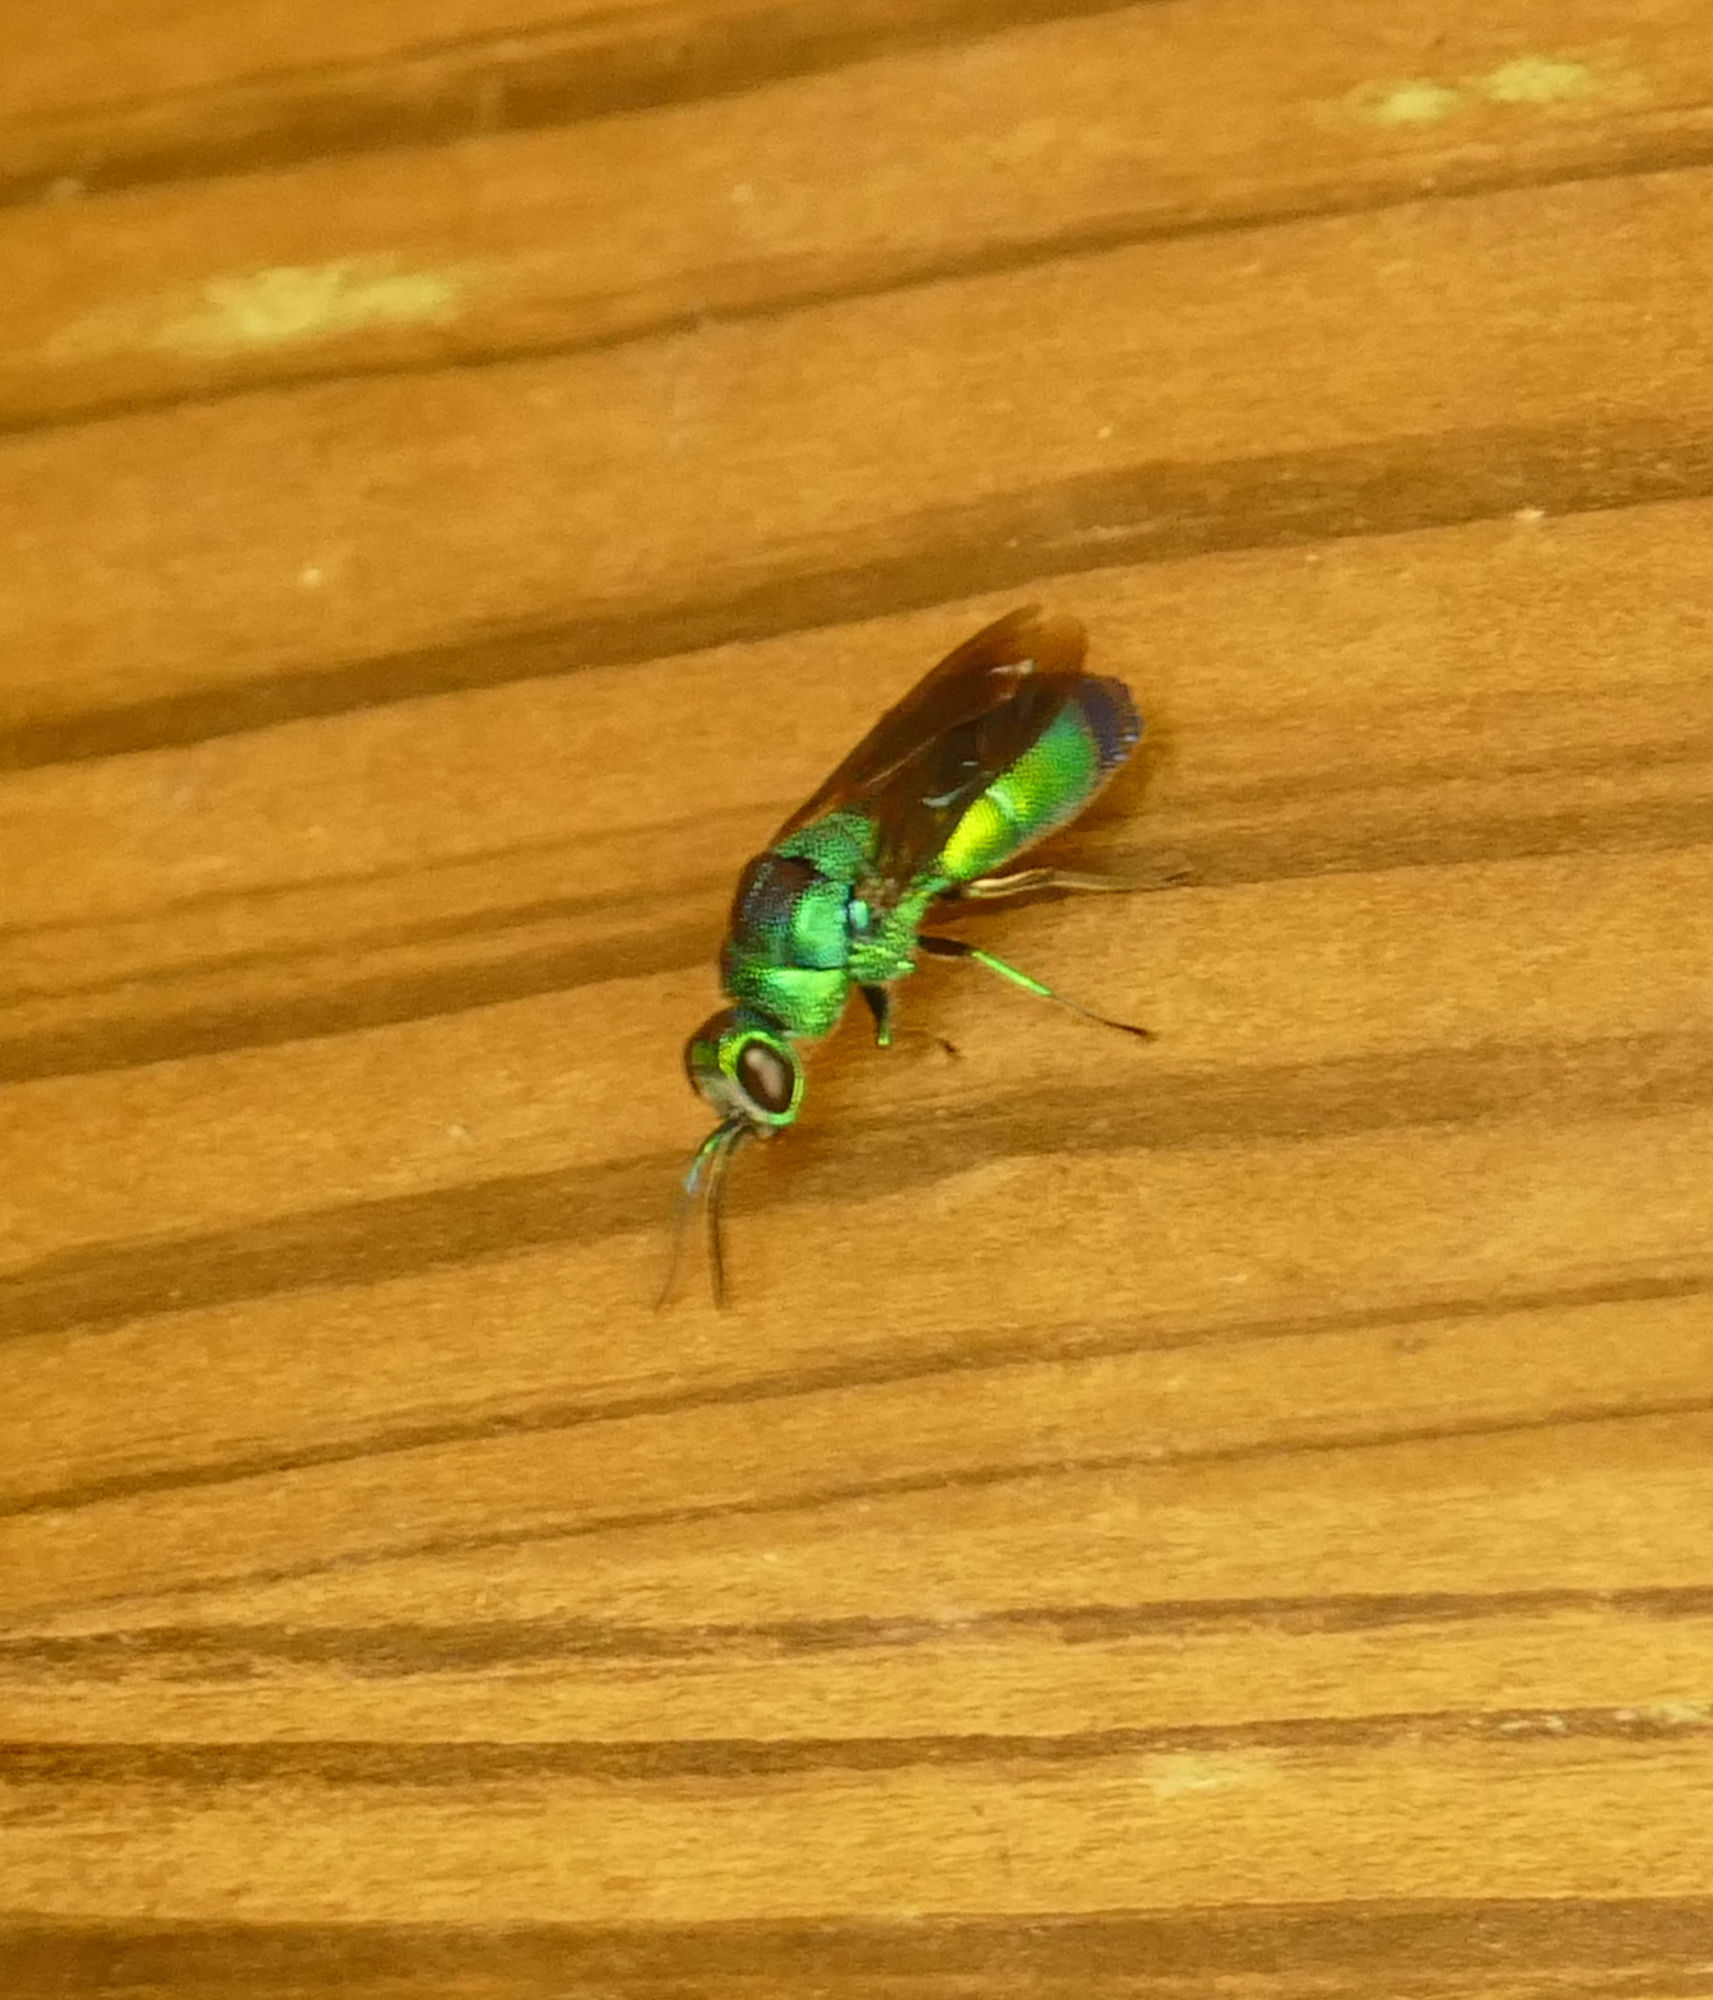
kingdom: Animalia
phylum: Arthropoda
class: Insecta
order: Hymenoptera
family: Chrysididae
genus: Chrysis
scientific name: Chrysis angolensis
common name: Cuckoo wasp
